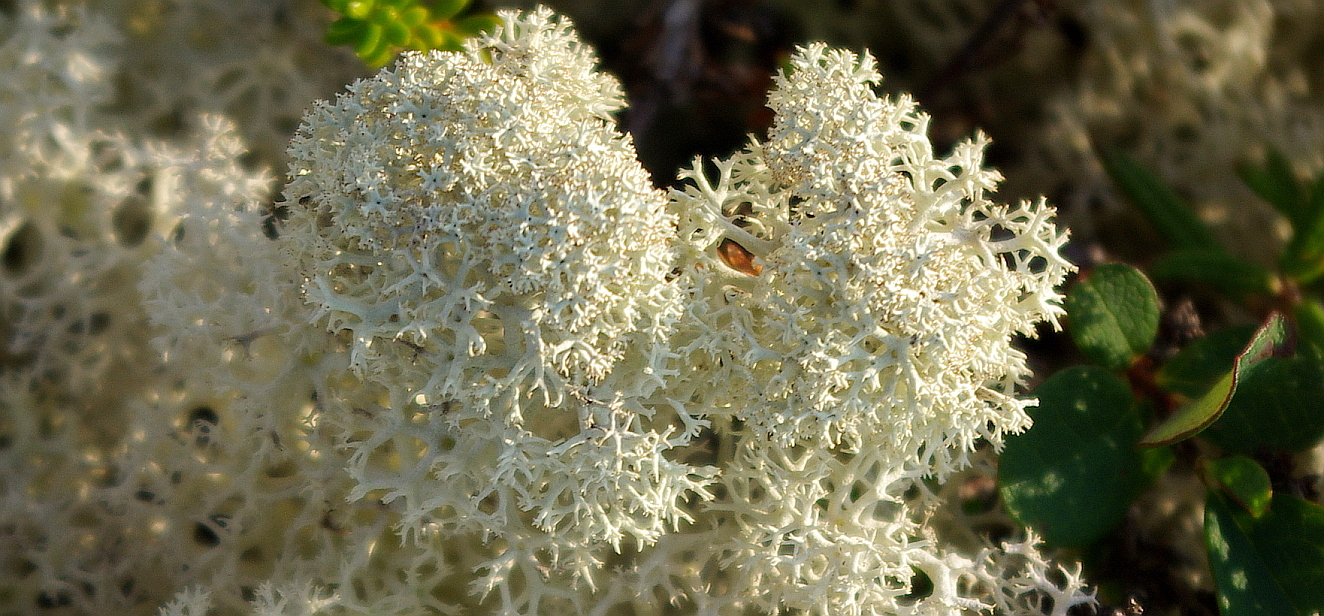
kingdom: Fungi
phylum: Ascomycota
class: Lecanoromycetes
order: Lecanorales
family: Cladoniaceae
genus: Cladonia
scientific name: Cladonia stellaris
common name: Star-tipped reindeer lichen
